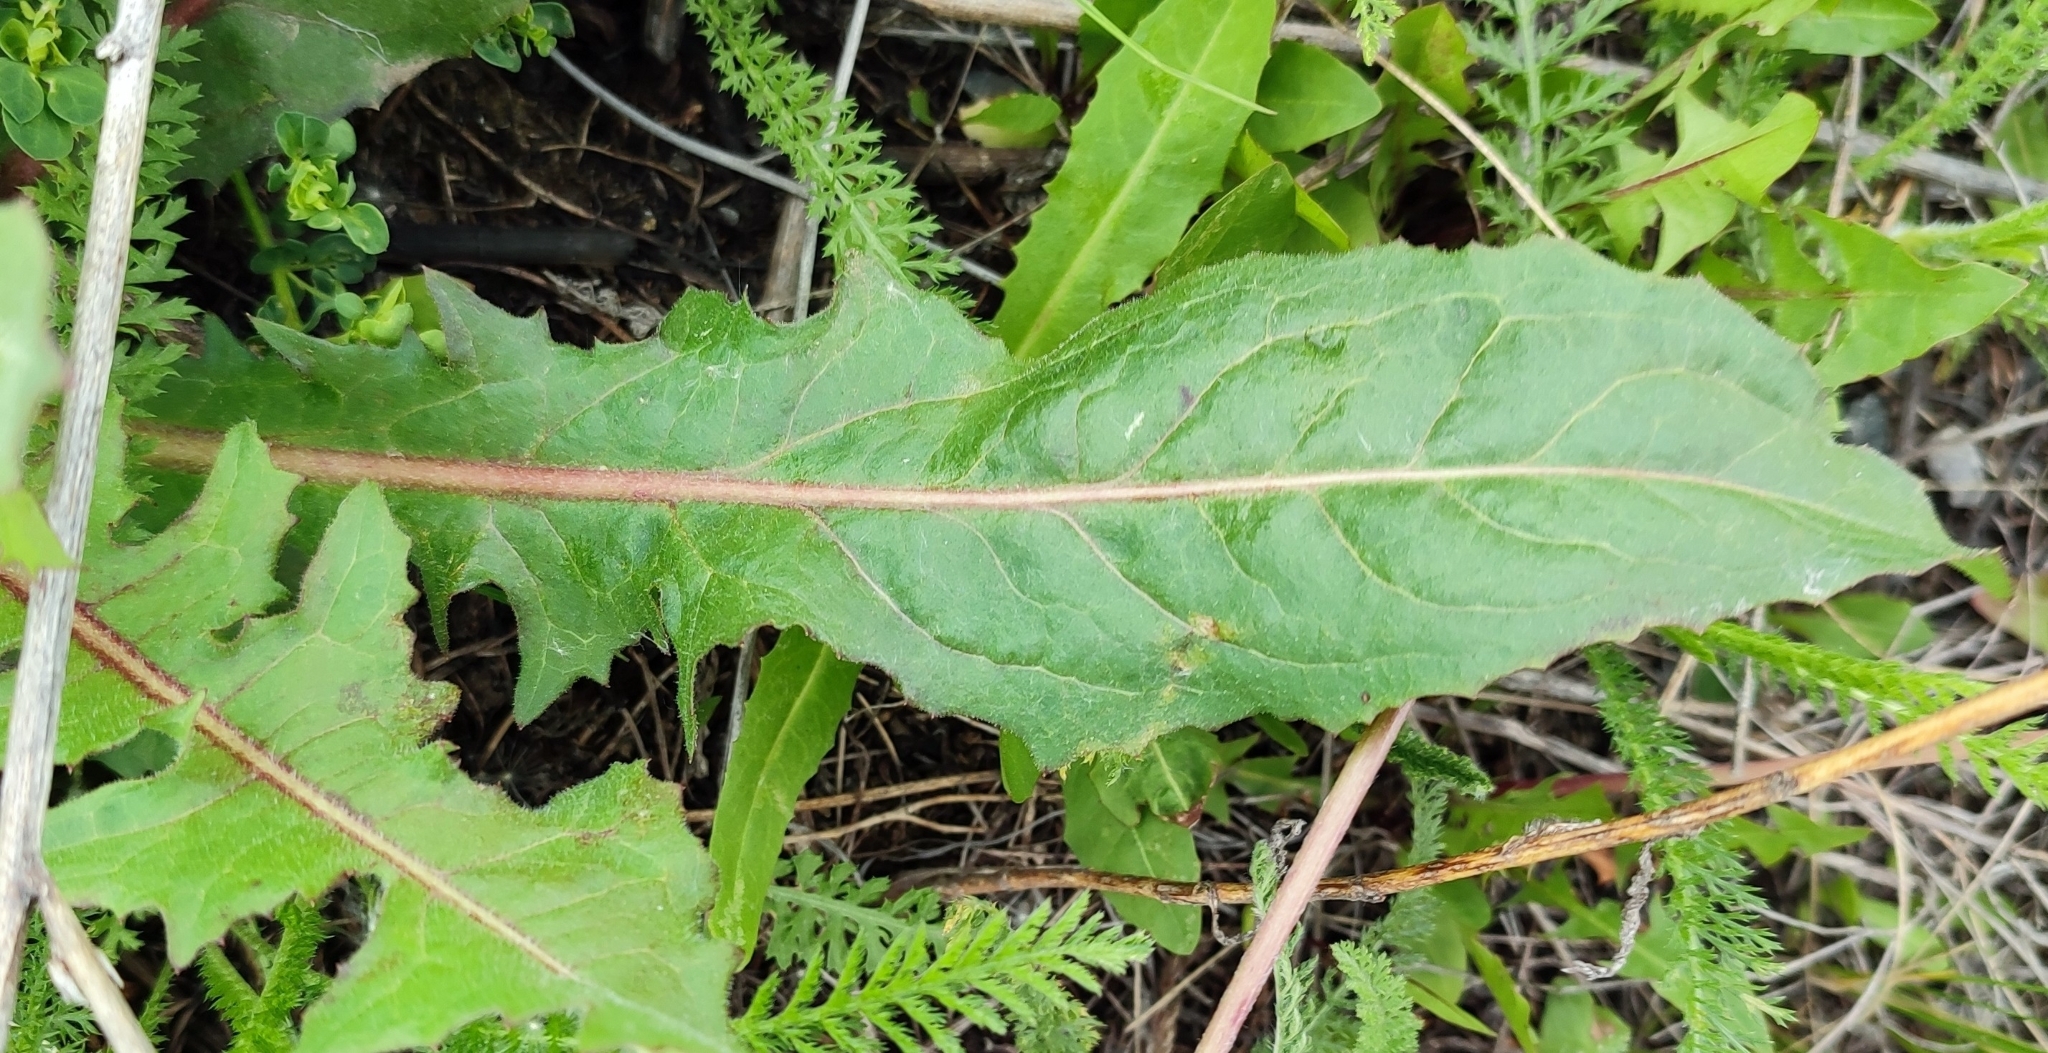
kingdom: Plantae
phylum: Tracheophyta
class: Magnoliopsida
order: Asterales
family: Asteraceae
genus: Cichorium
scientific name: Cichorium intybus
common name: Chicory
